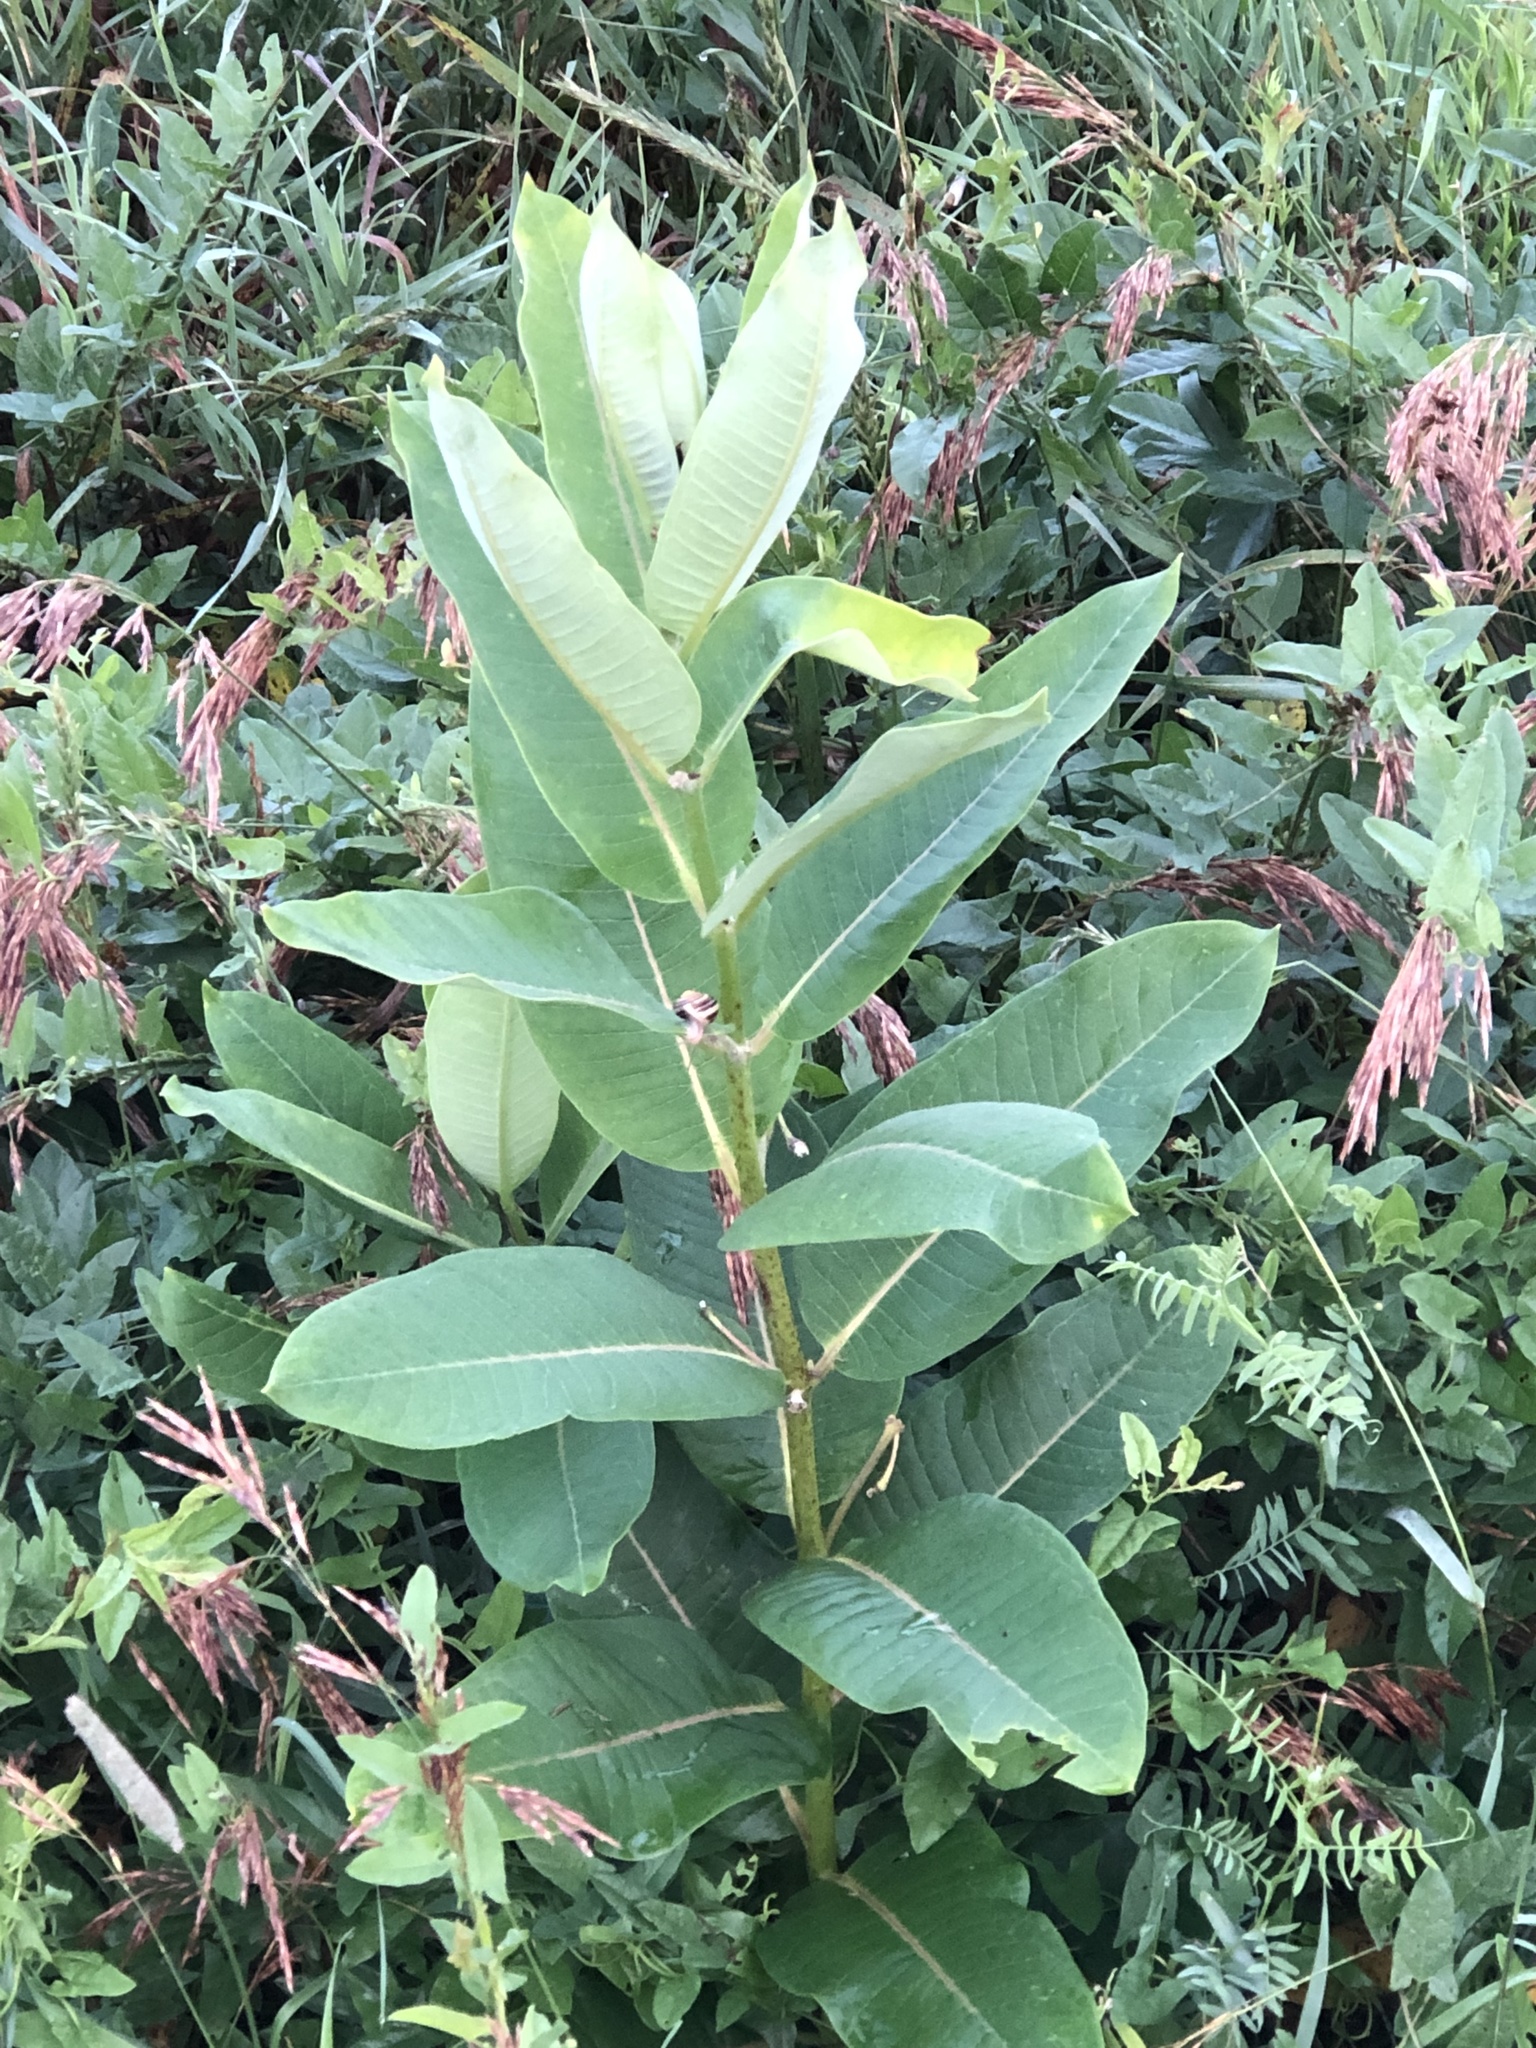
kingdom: Plantae
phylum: Tracheophyta
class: Magnoliopsida
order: Gentianales
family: Apocynaceae
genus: Asclepias
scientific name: Asclepias syriaca
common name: Common milkweed
